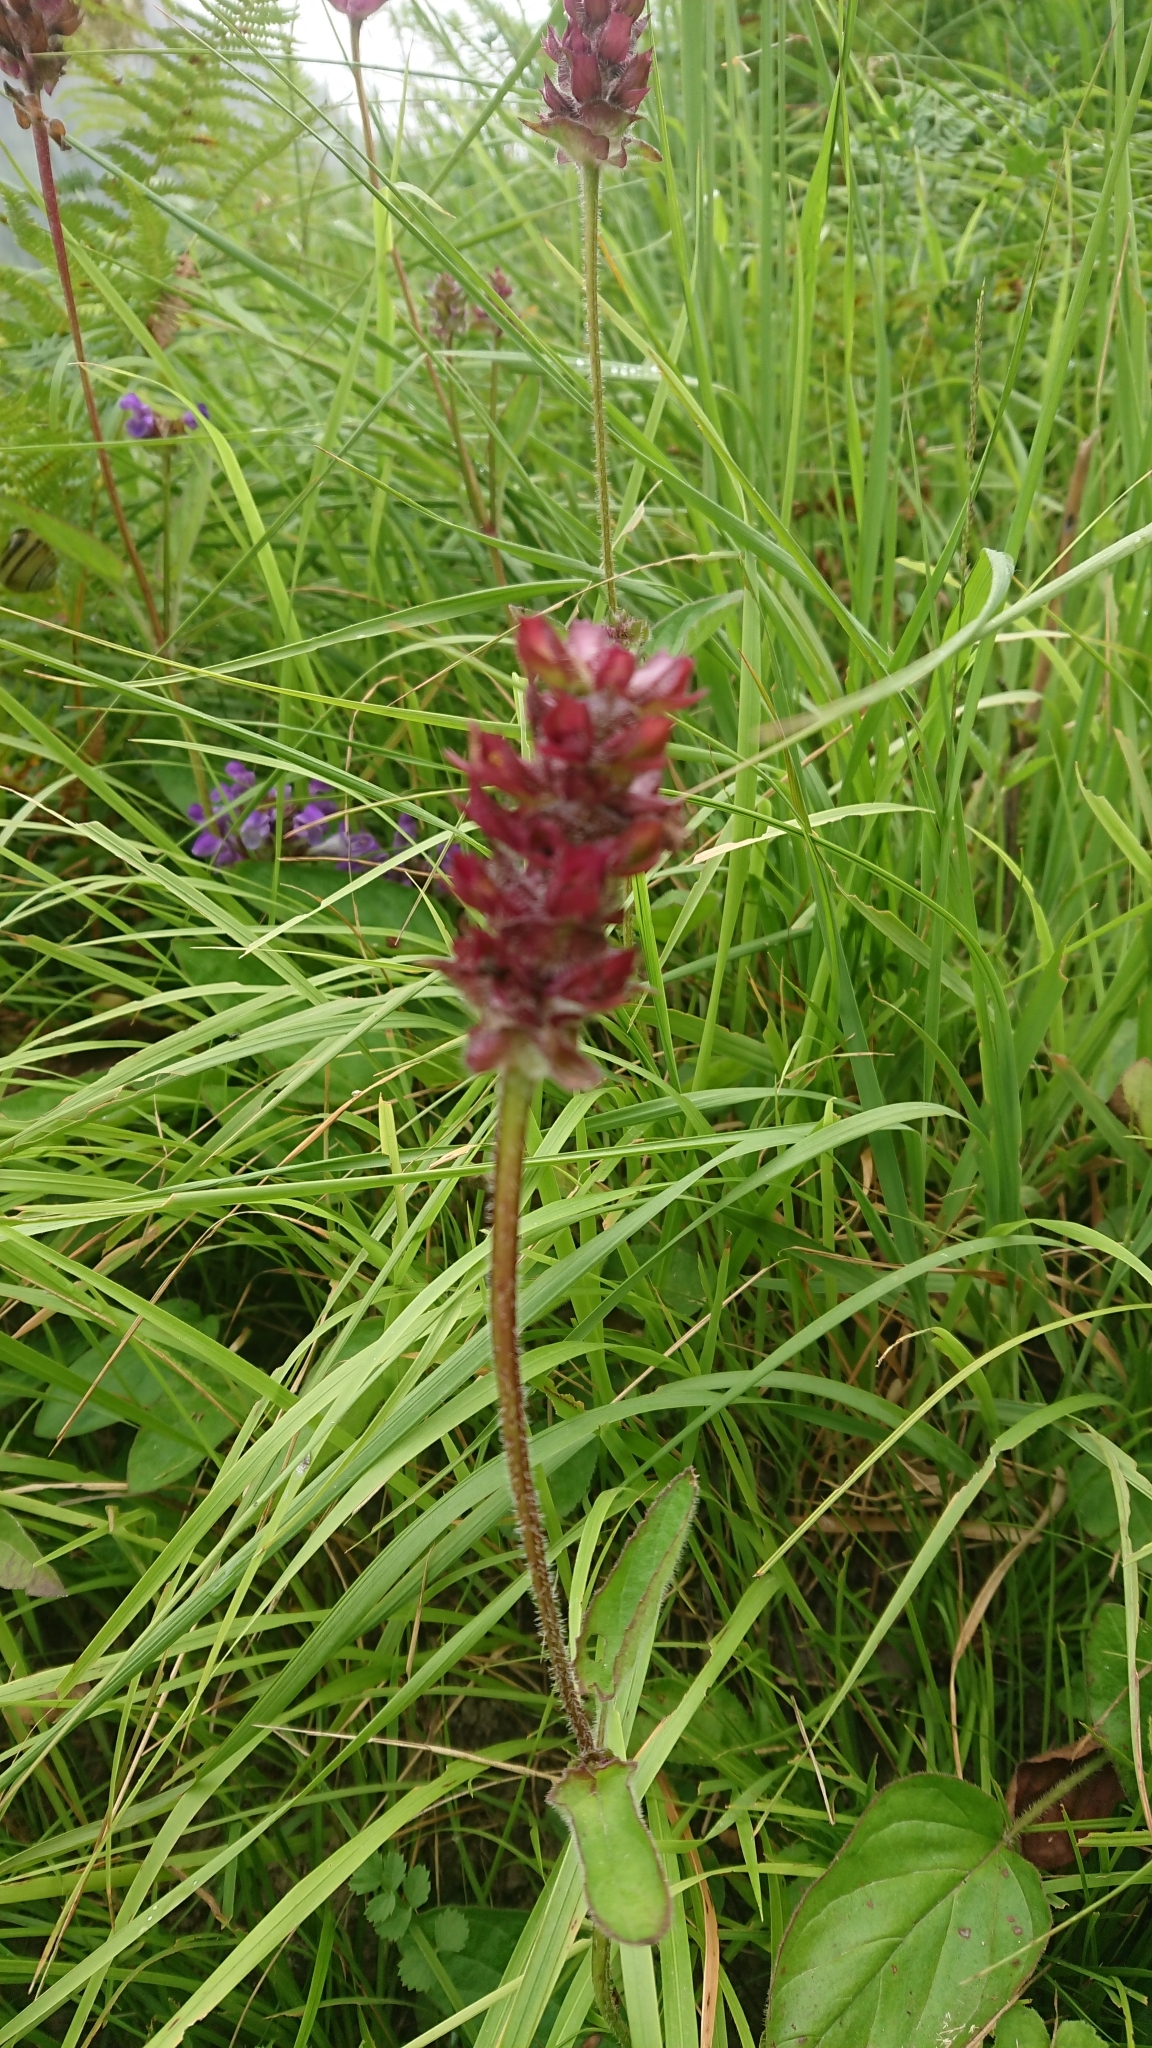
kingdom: Plantae
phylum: Tracheophyta
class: Magnoliopsida
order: Lamiales
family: Lamiaceae
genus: Prunella
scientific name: Prunella grandiflora
